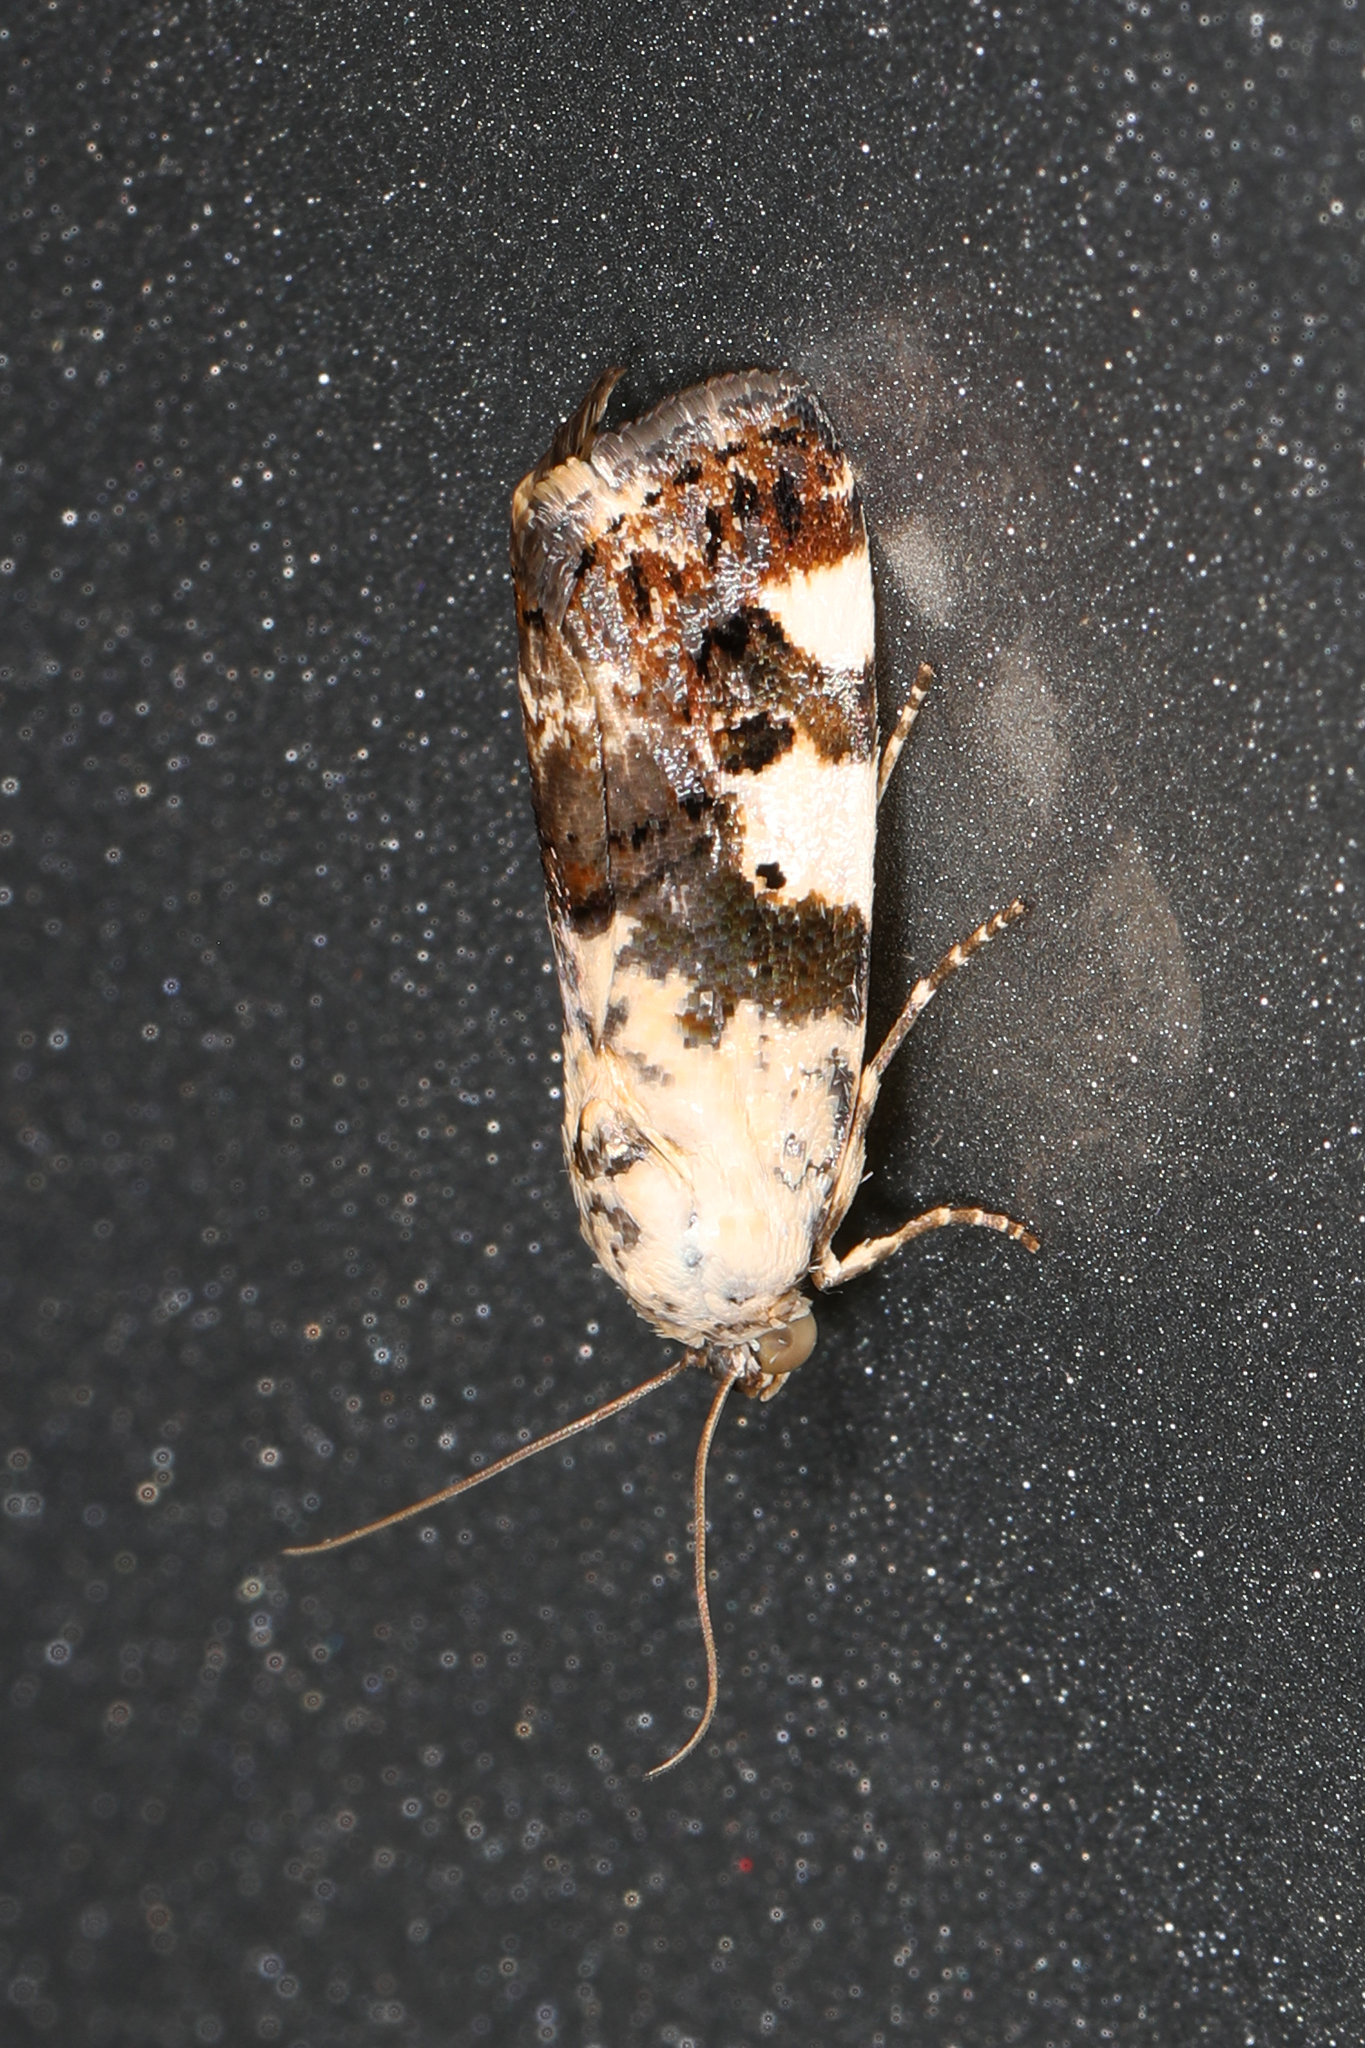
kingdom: Animalia
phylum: Arthropoda
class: Insecta
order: Lepidoptera
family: Noctuidae
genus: Acontia
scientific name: Acontia aprica
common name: Nun
